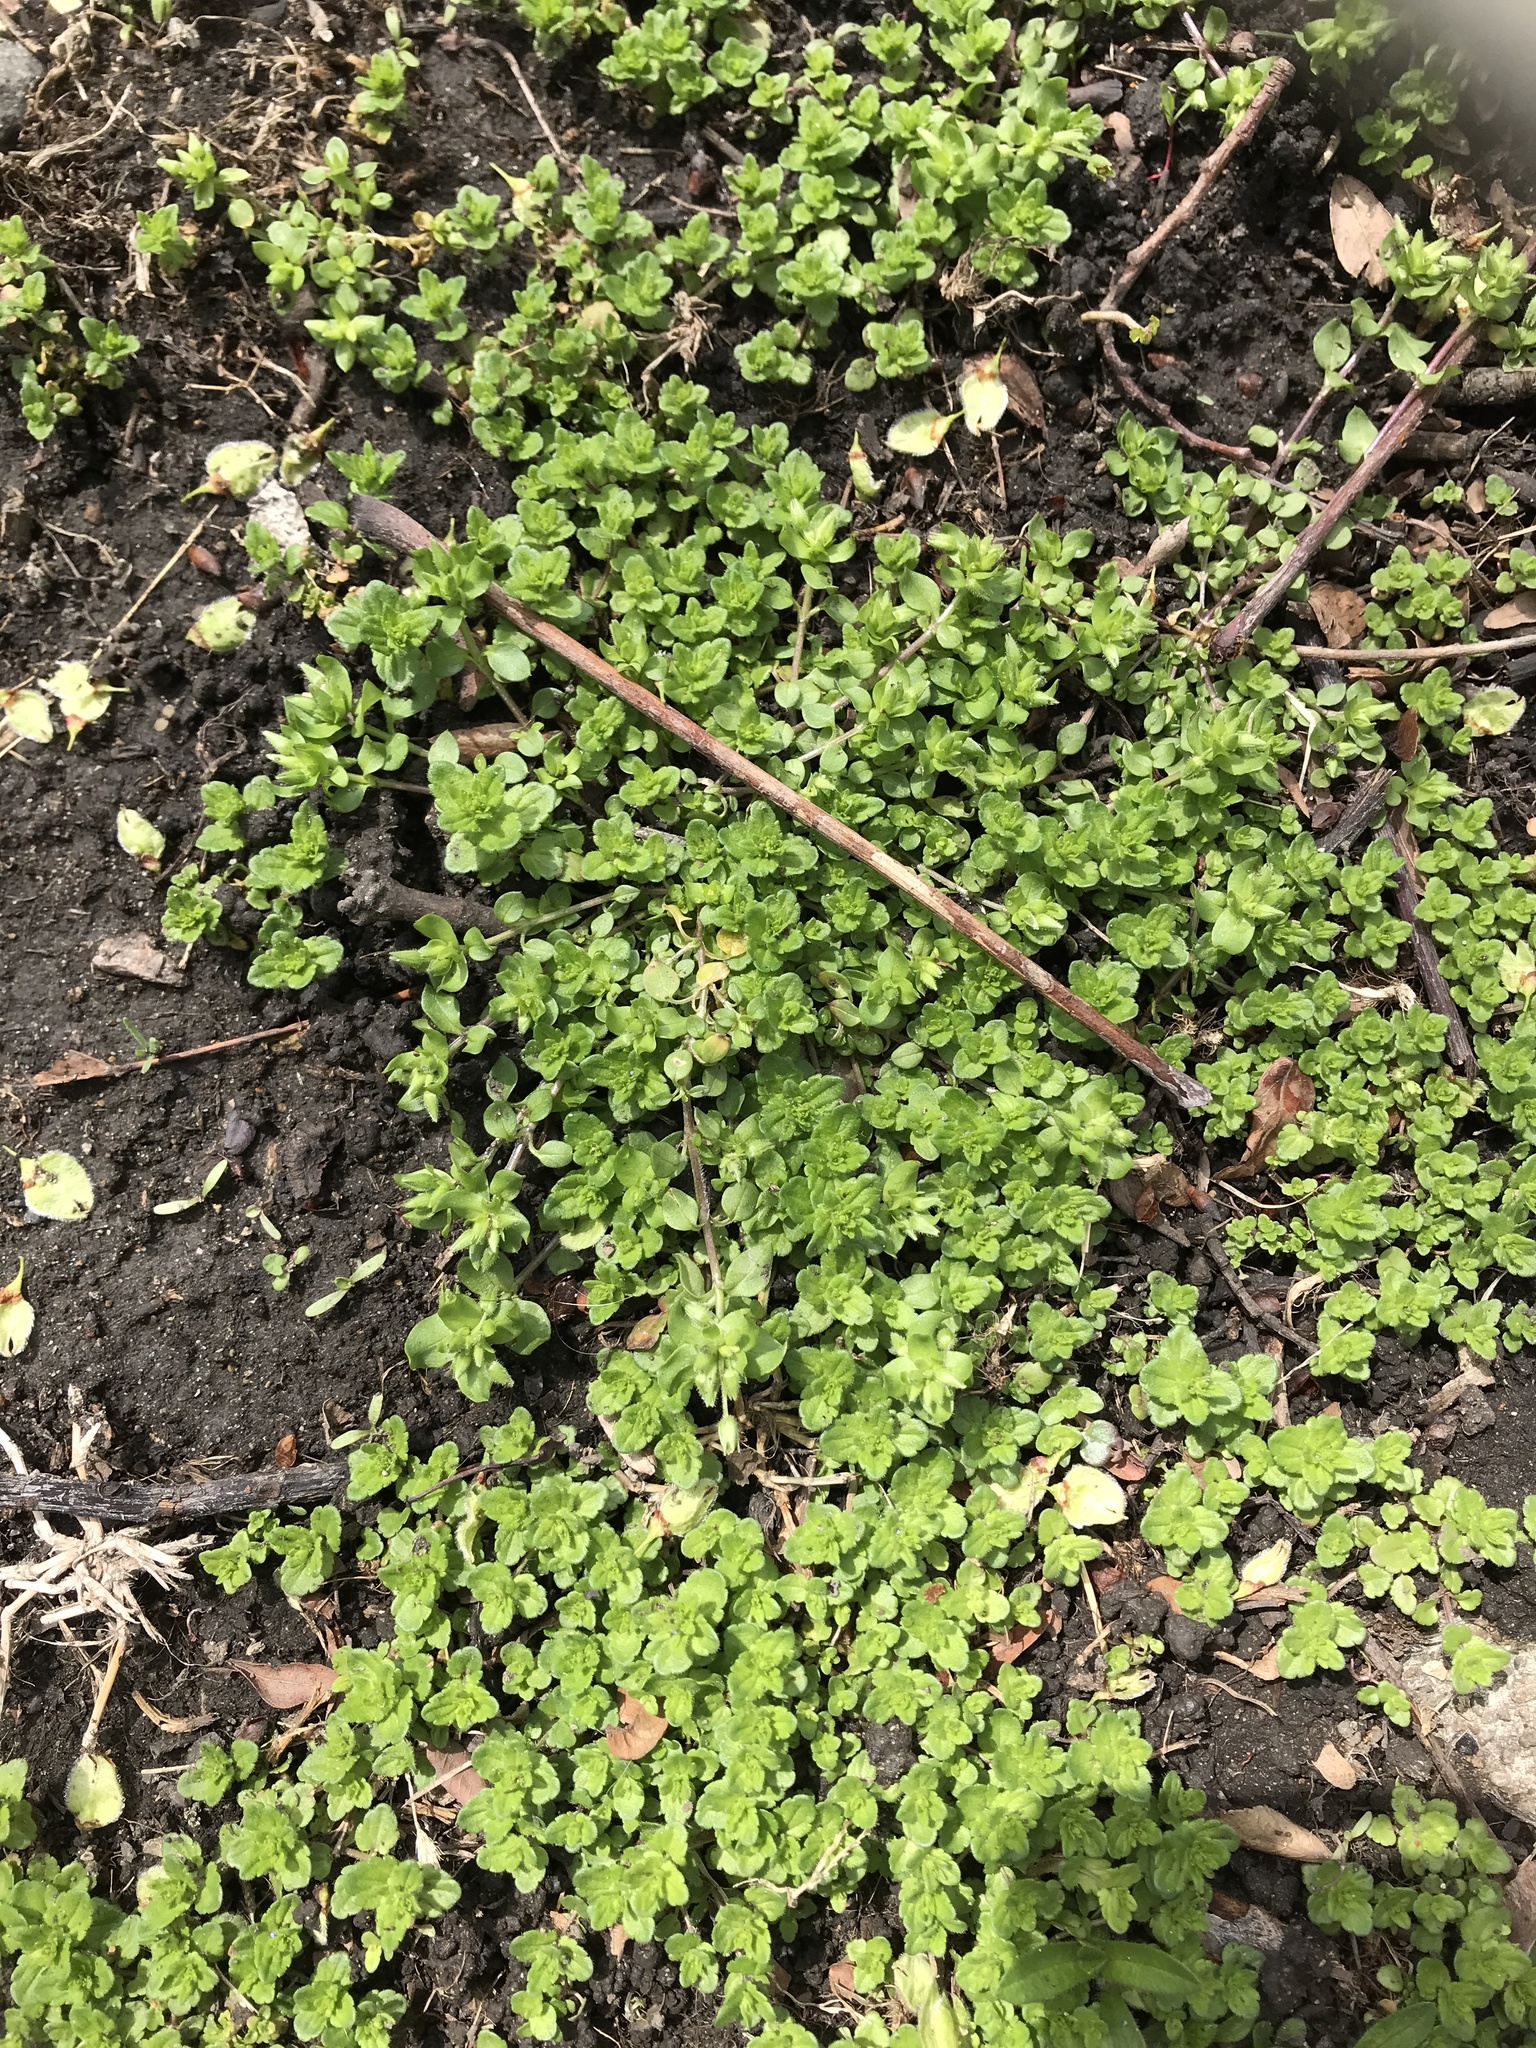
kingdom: Plantae
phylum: Tracheophyta
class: Magnoliopsida
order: Lamiales
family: Plantaginaceae
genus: Veronica
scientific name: Veronica arvensis
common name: Corn speedwell
